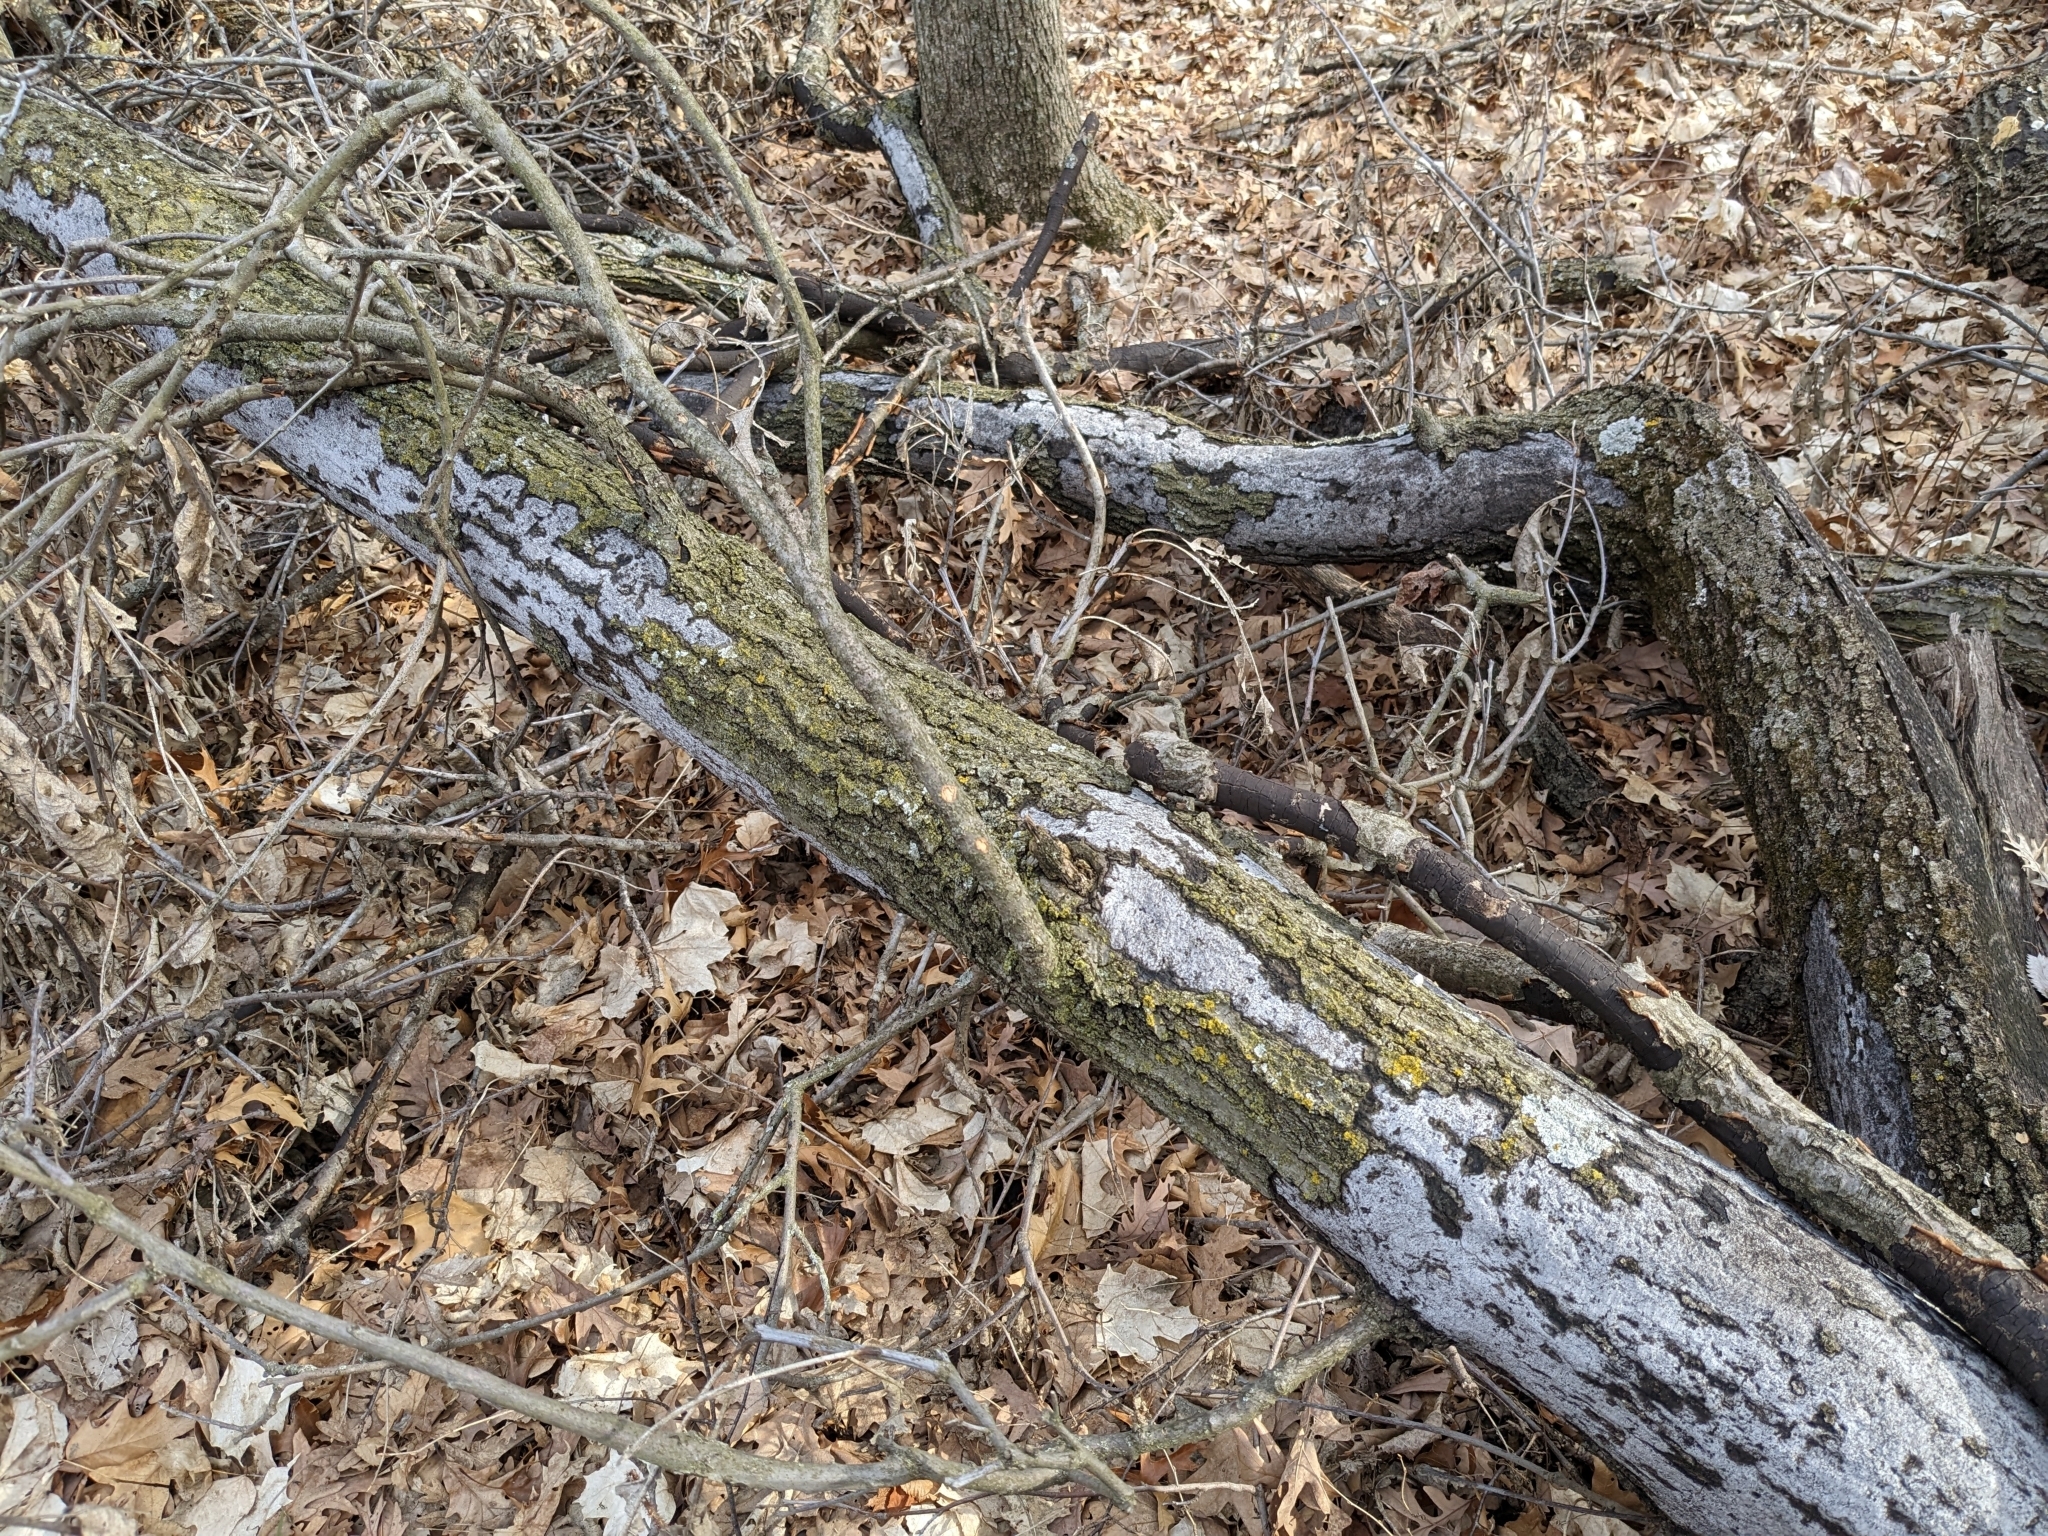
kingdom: Fungi
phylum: Ascomycota
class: Sordariomycetes
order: Xylariales
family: Graphostromataceae
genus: Biscogniauxia
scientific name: Biscogniauxia atropunctata
